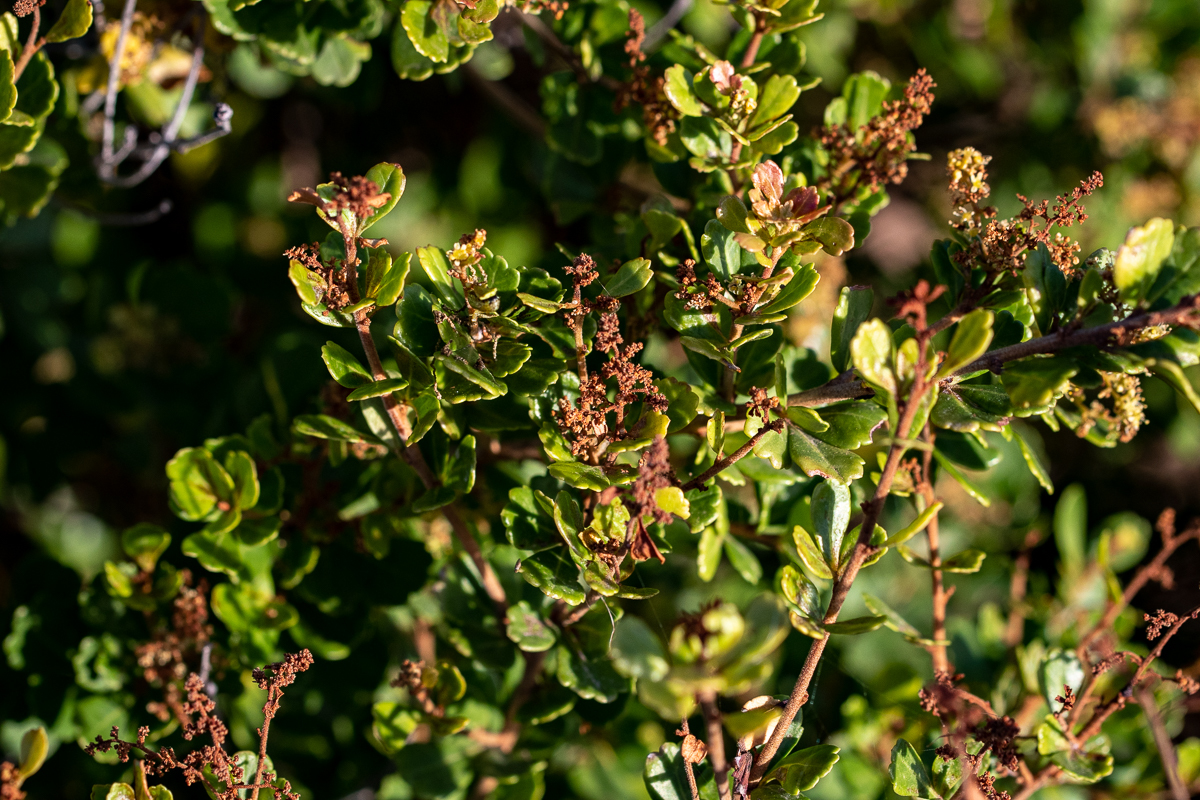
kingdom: Plantae
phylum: Tracheophyta
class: Magnoliopsida
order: Sapindales
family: Anacardiaceae
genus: Searsia
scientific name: Searsia crenata
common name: Crowberry
